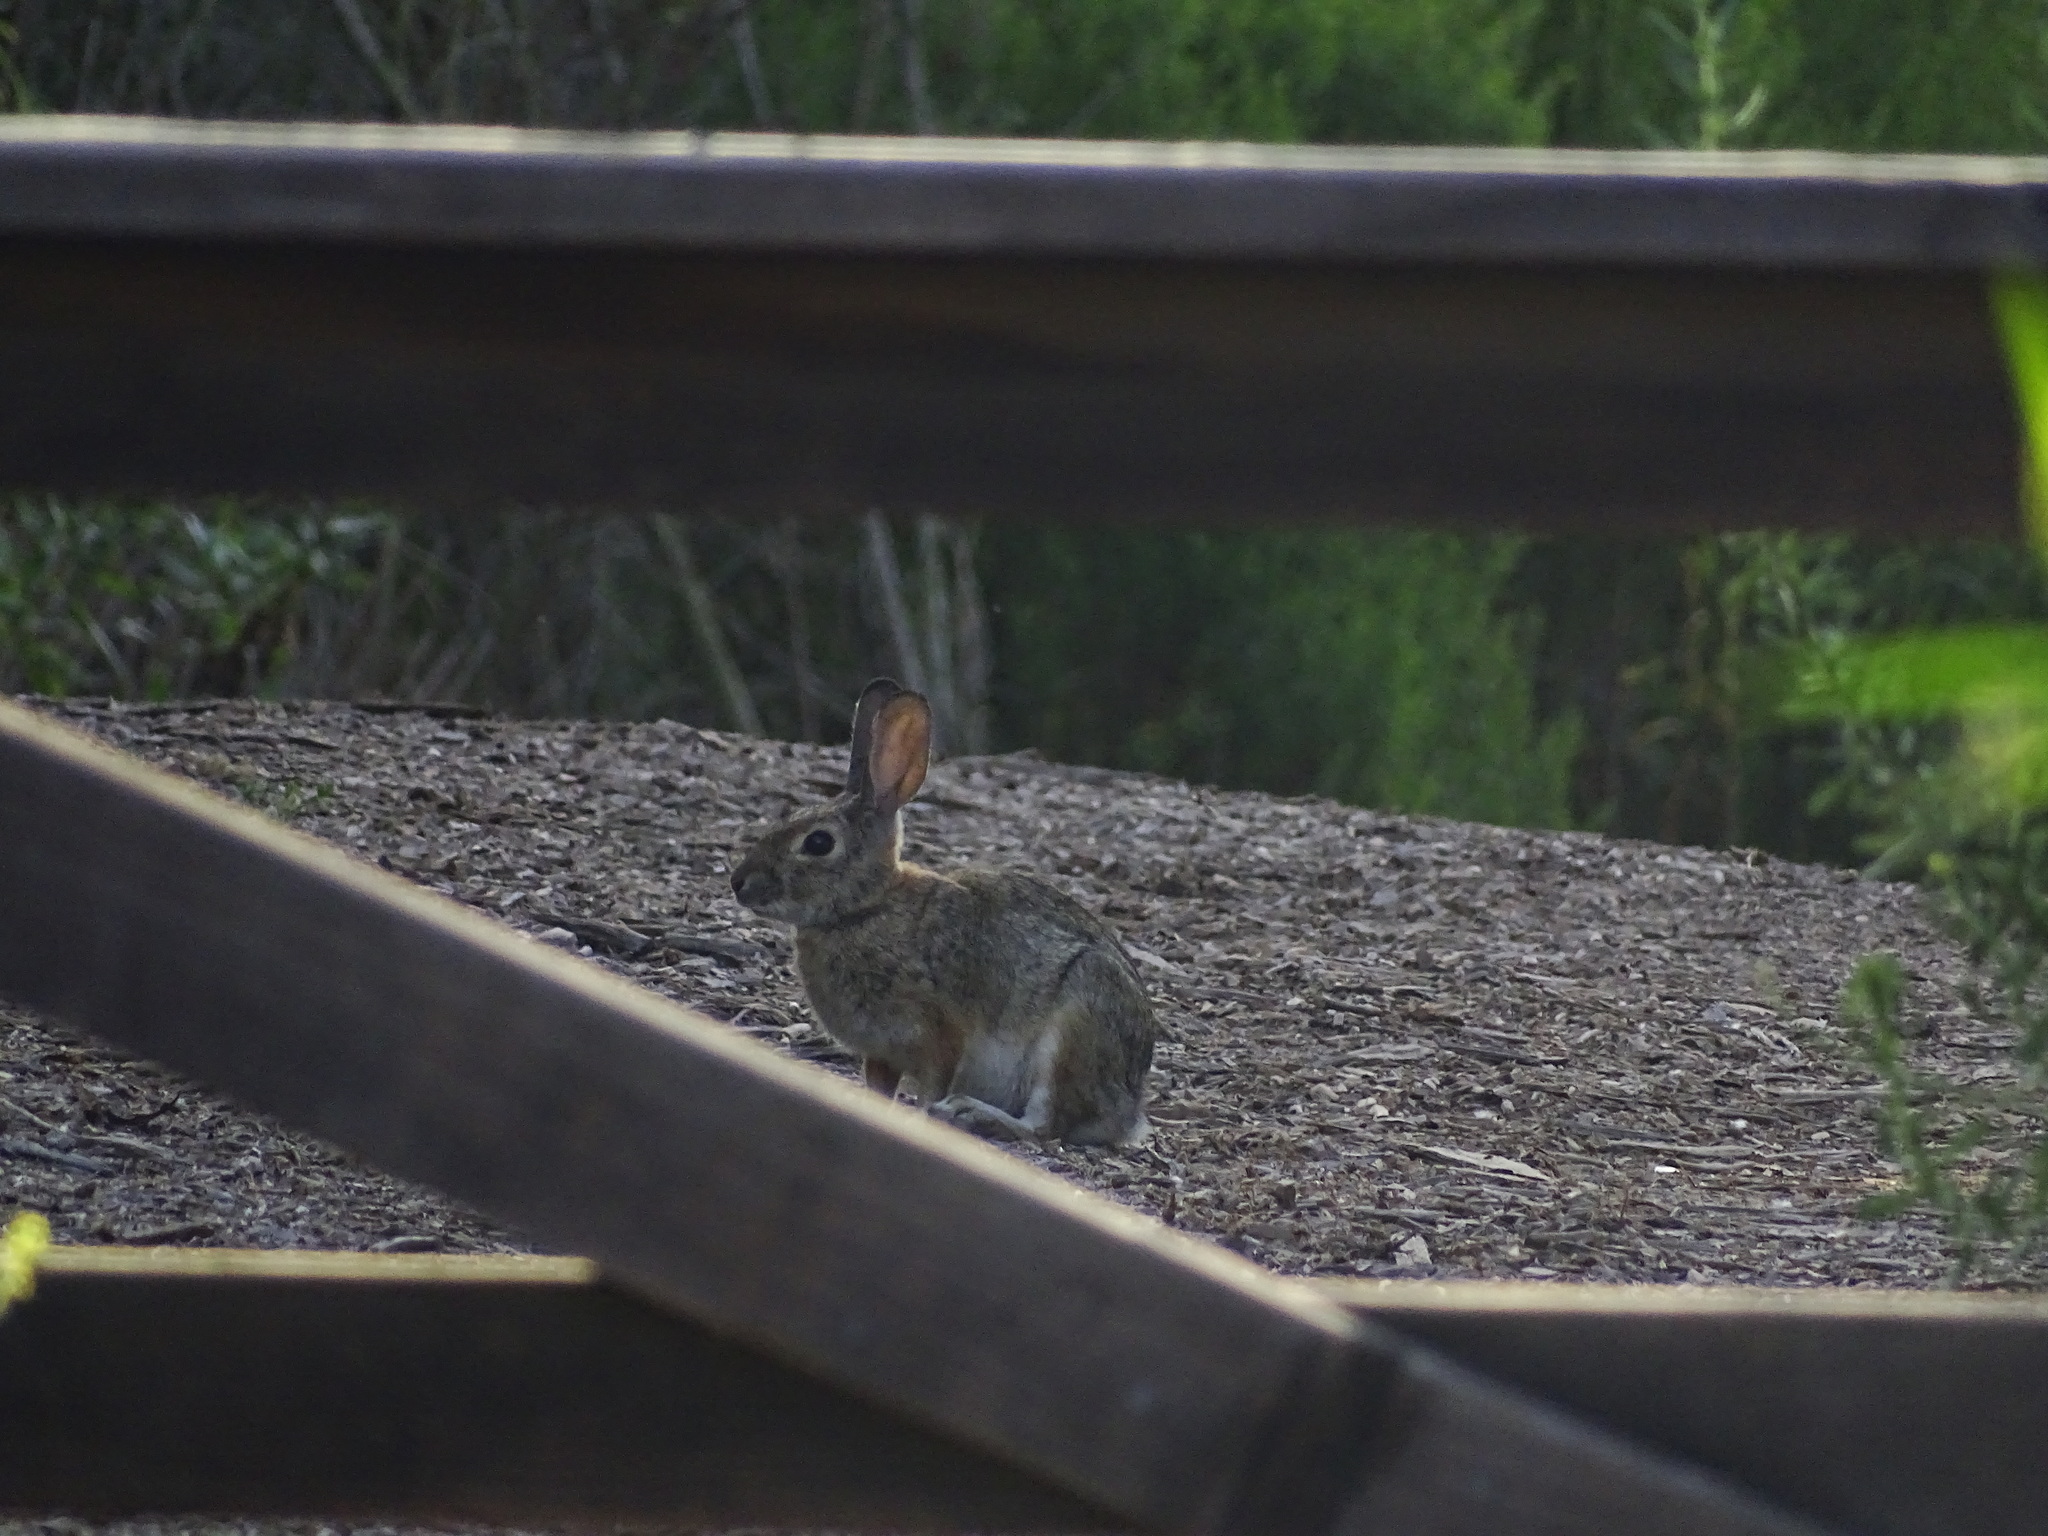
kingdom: Animalia
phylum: Chordata
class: Mammalia
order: Lagomorpha
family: Leporidae
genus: Sylvilagus
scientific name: Sylvilagus audubonii
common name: Desert cottontail
